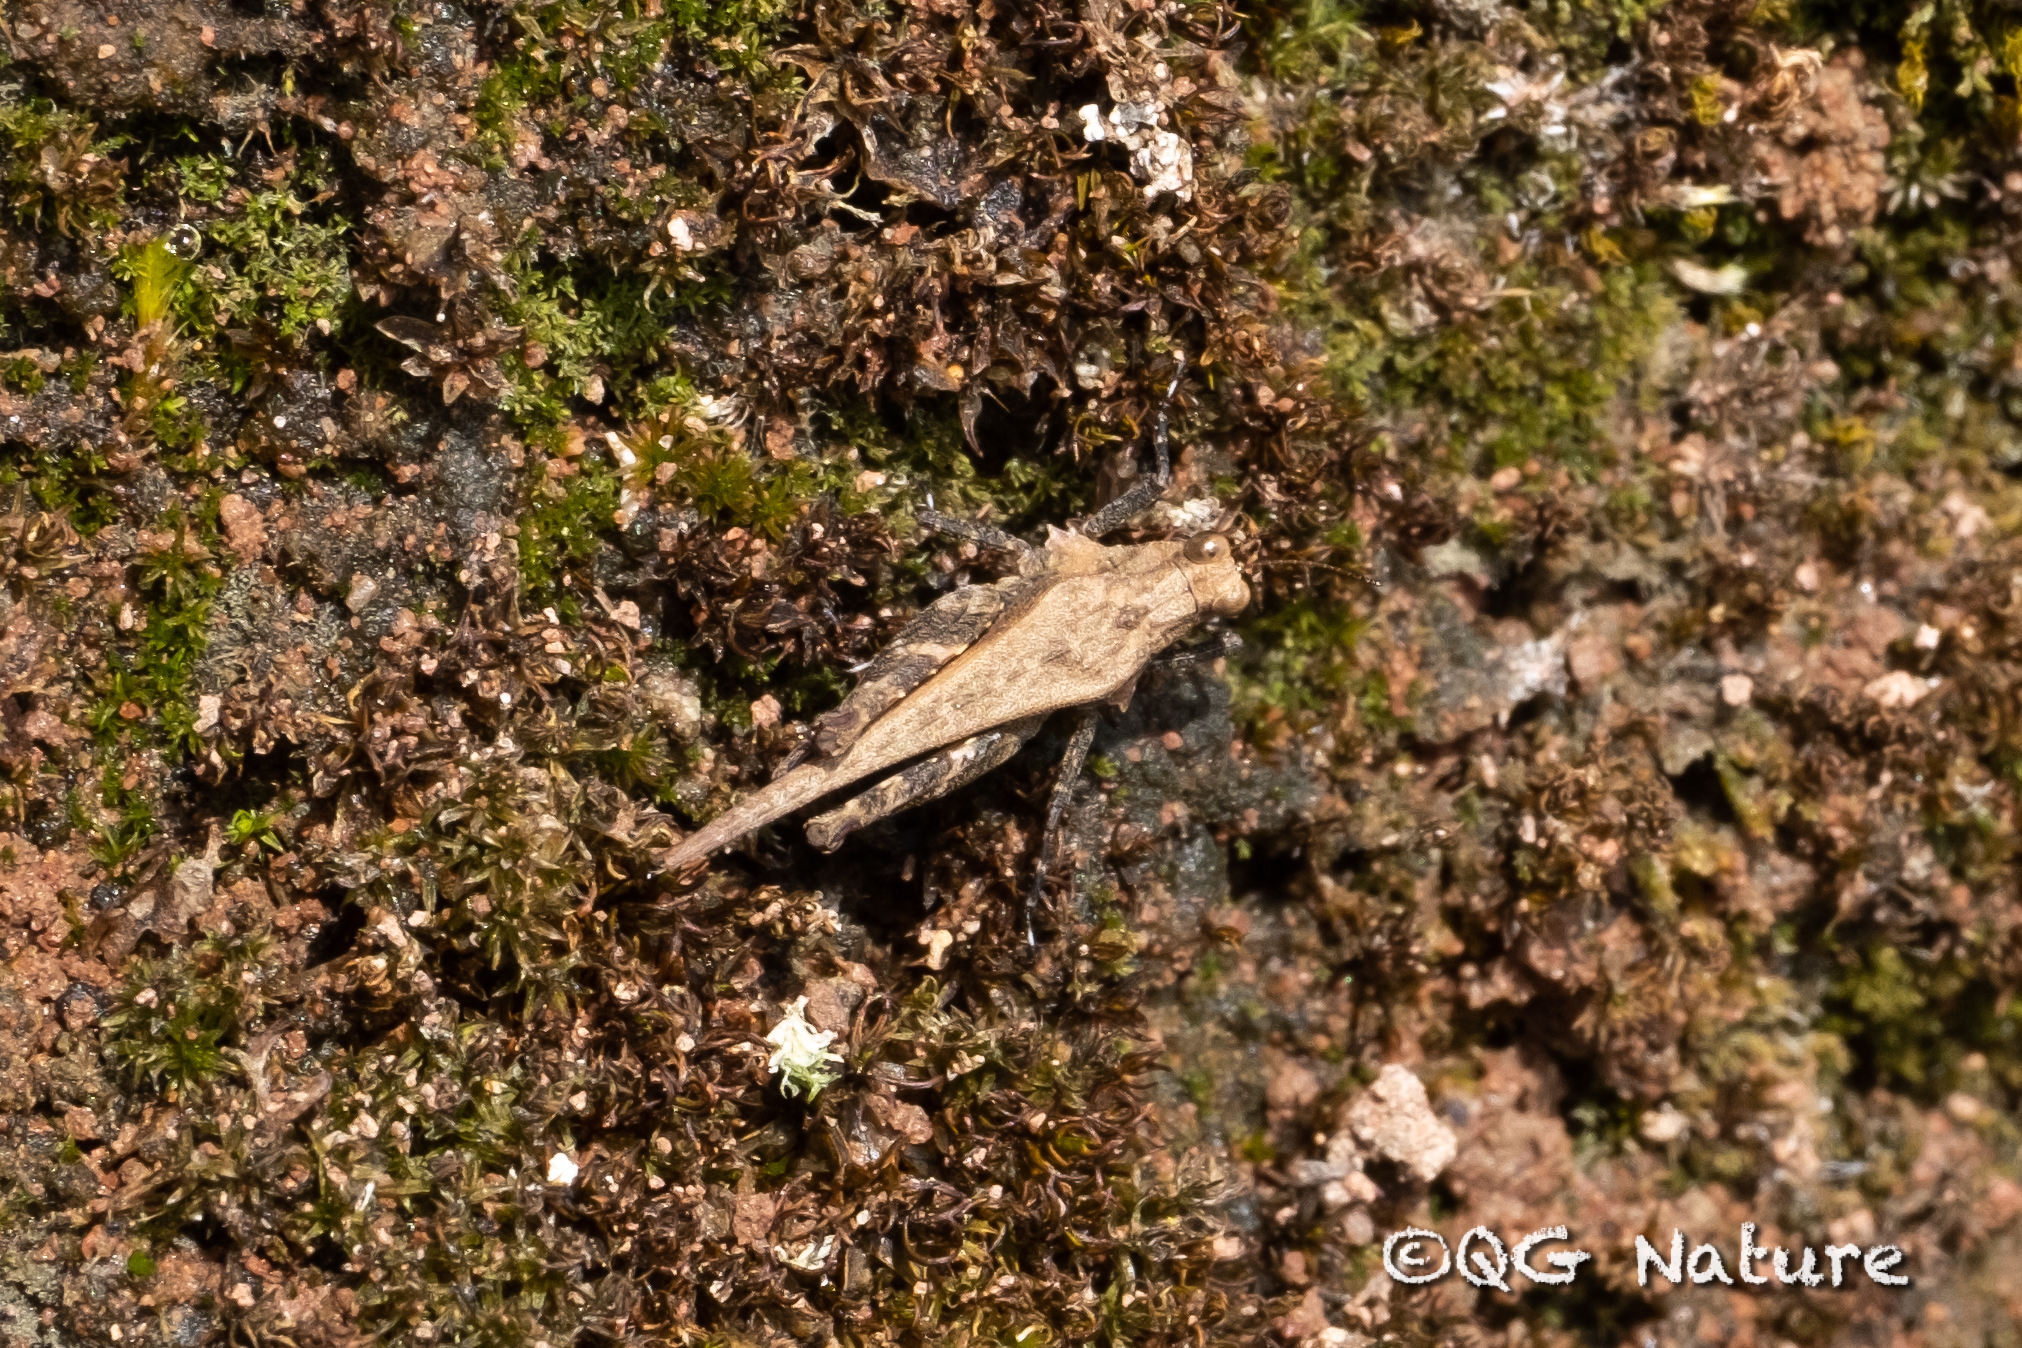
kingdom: Animalia
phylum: Arthropoda
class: Insecta
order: Orthoptera
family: Tetrigidae
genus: Criotettix
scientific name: Criotettix bispinosus
